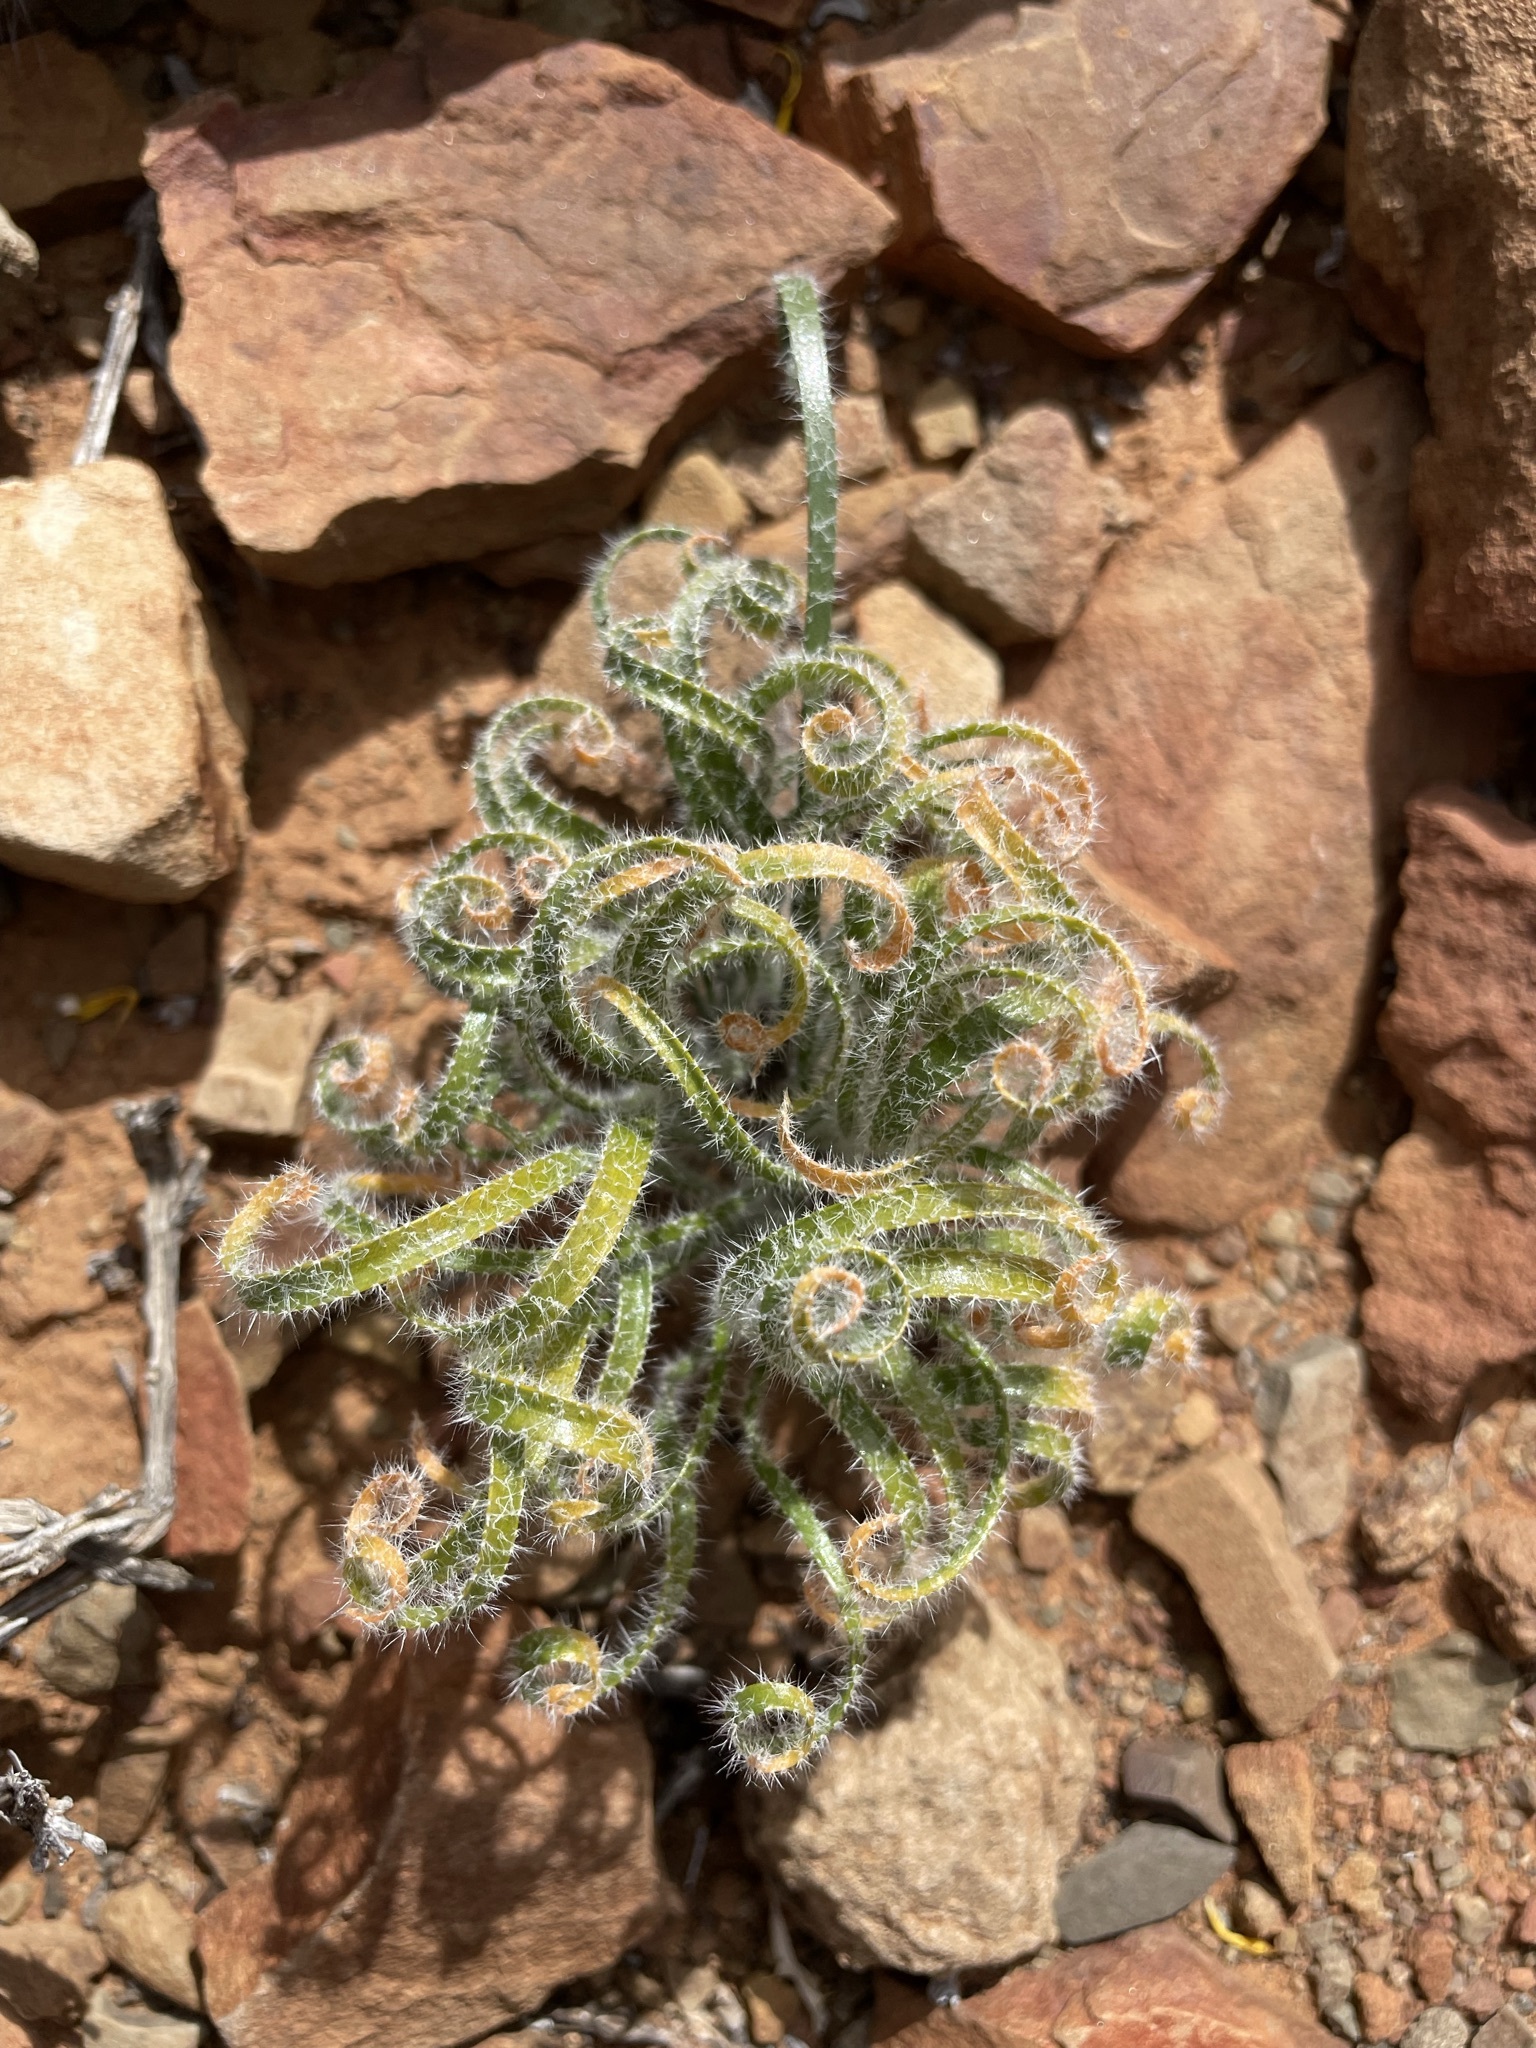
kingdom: Plantae
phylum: Tracheophyta
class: Liliopsida
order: Asparagales
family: Amaryllidaceae
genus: Gethyllis
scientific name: Gethyllis villosa
